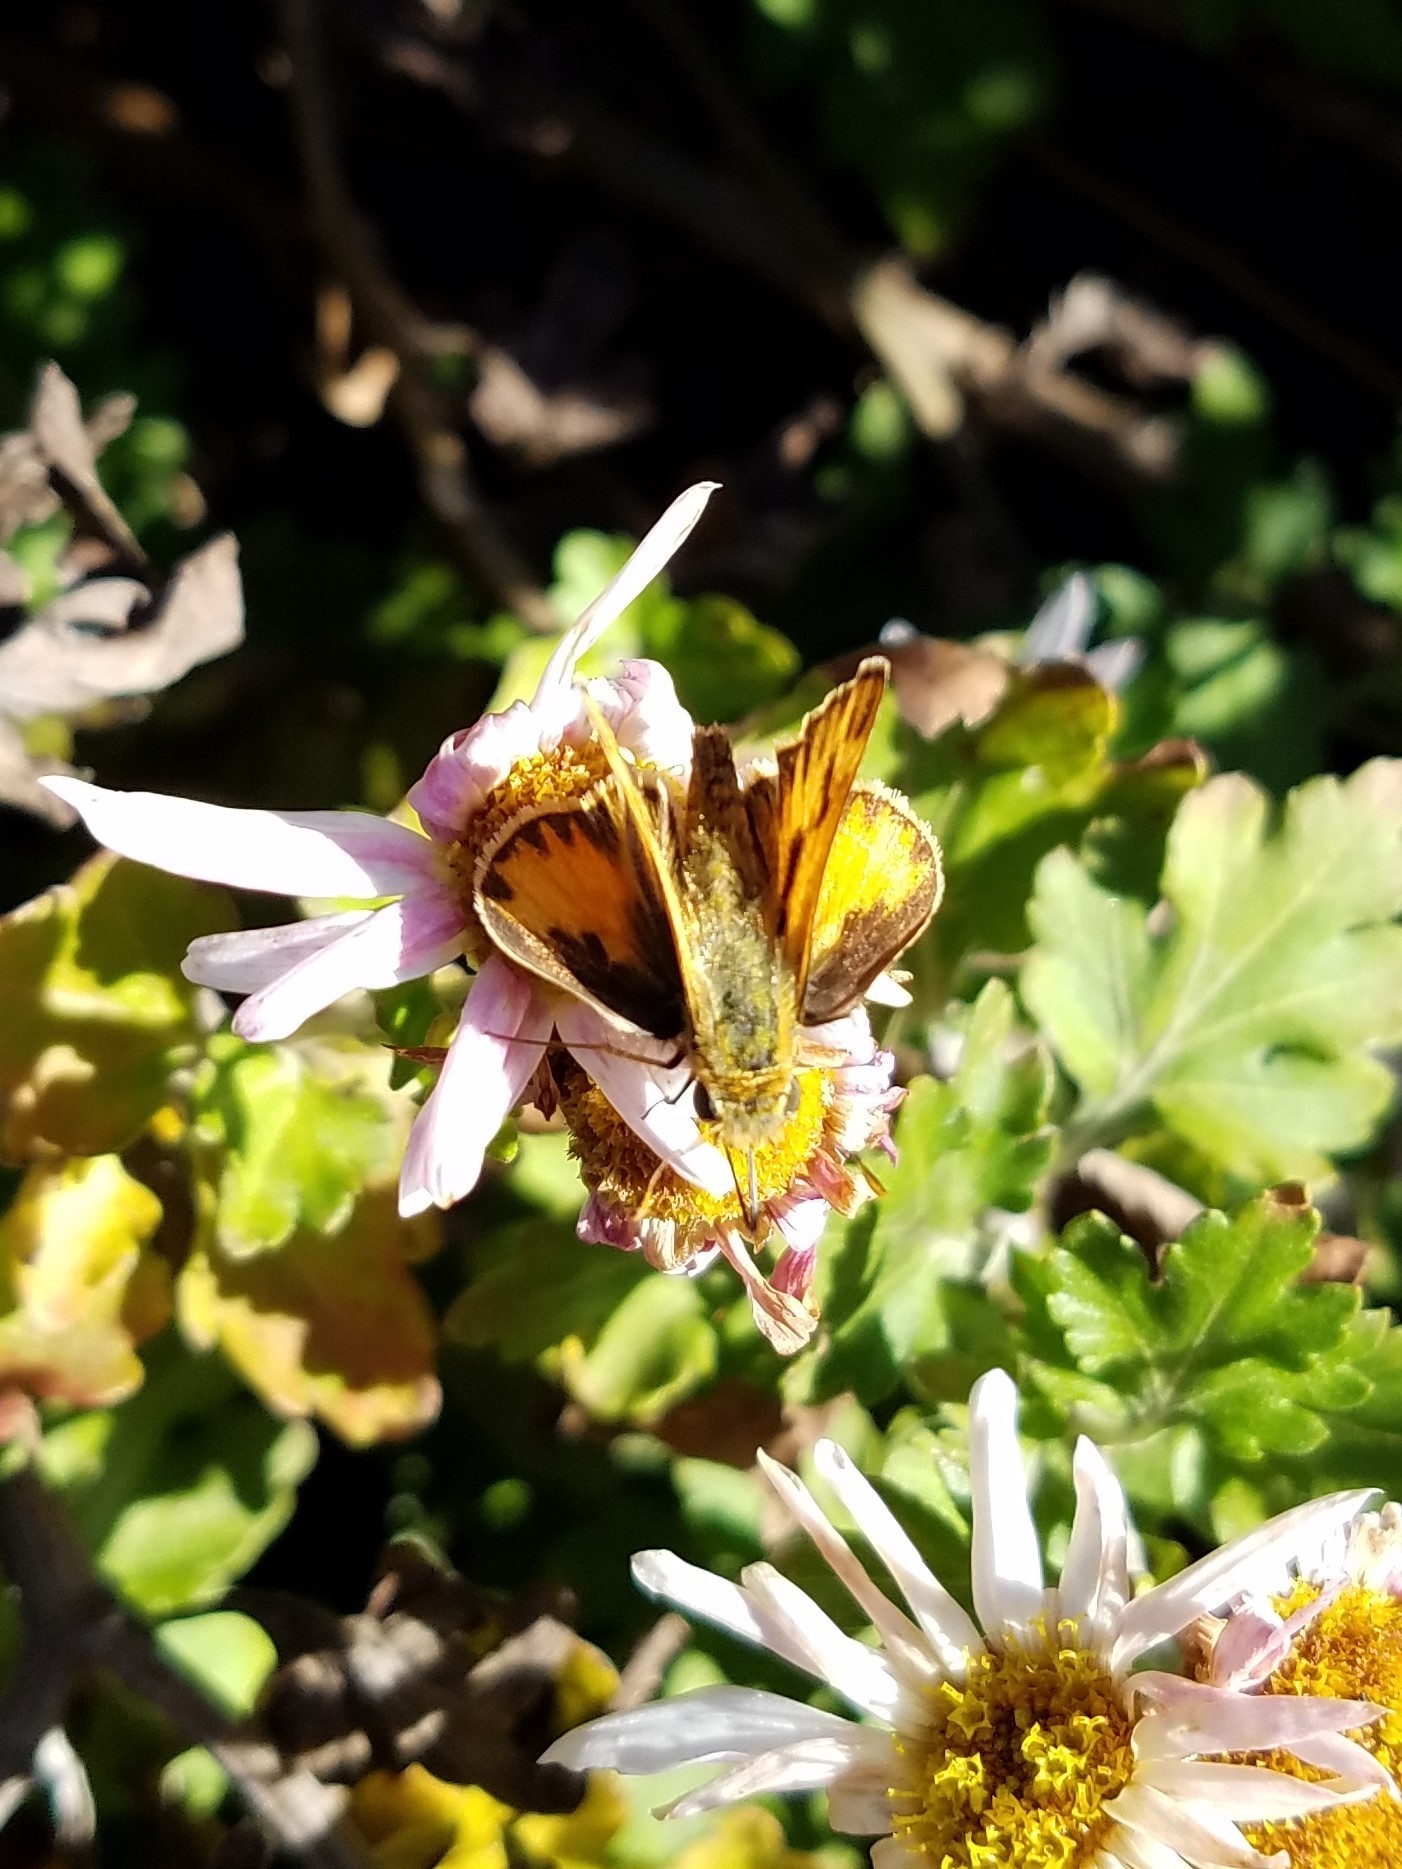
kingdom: Animalia
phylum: Arthropoda
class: Insecta
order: Lepidoptera
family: Hesperiidae
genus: Hylephila
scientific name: Hylephila phyleus
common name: Fiery skipper
